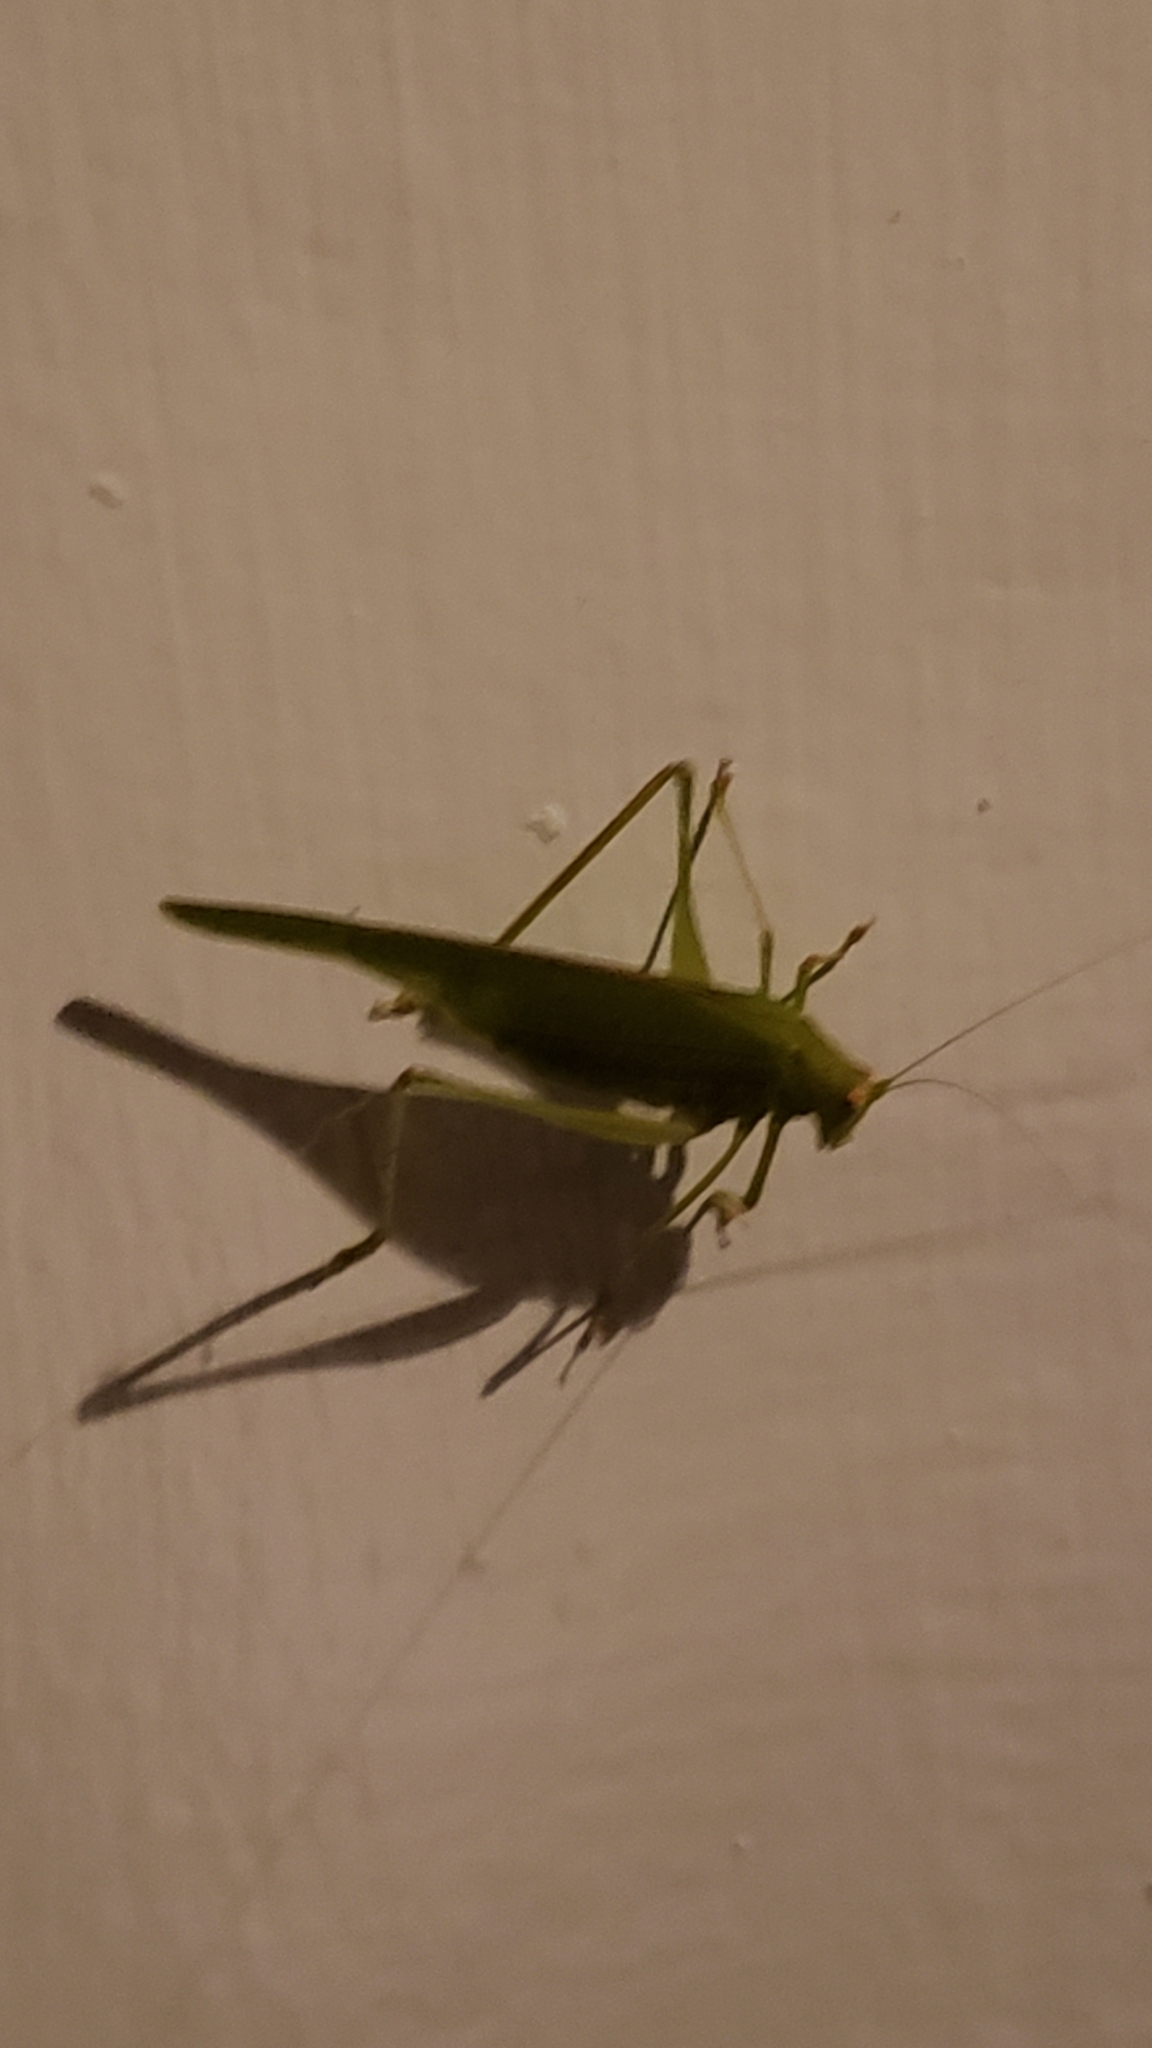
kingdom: Animalia
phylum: Arthropoda
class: Insecta
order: Orthoptera
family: Tettigoniidae
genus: Phaneroptera
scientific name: Phaneroptera nana
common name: Southern sickle bush-cricket
